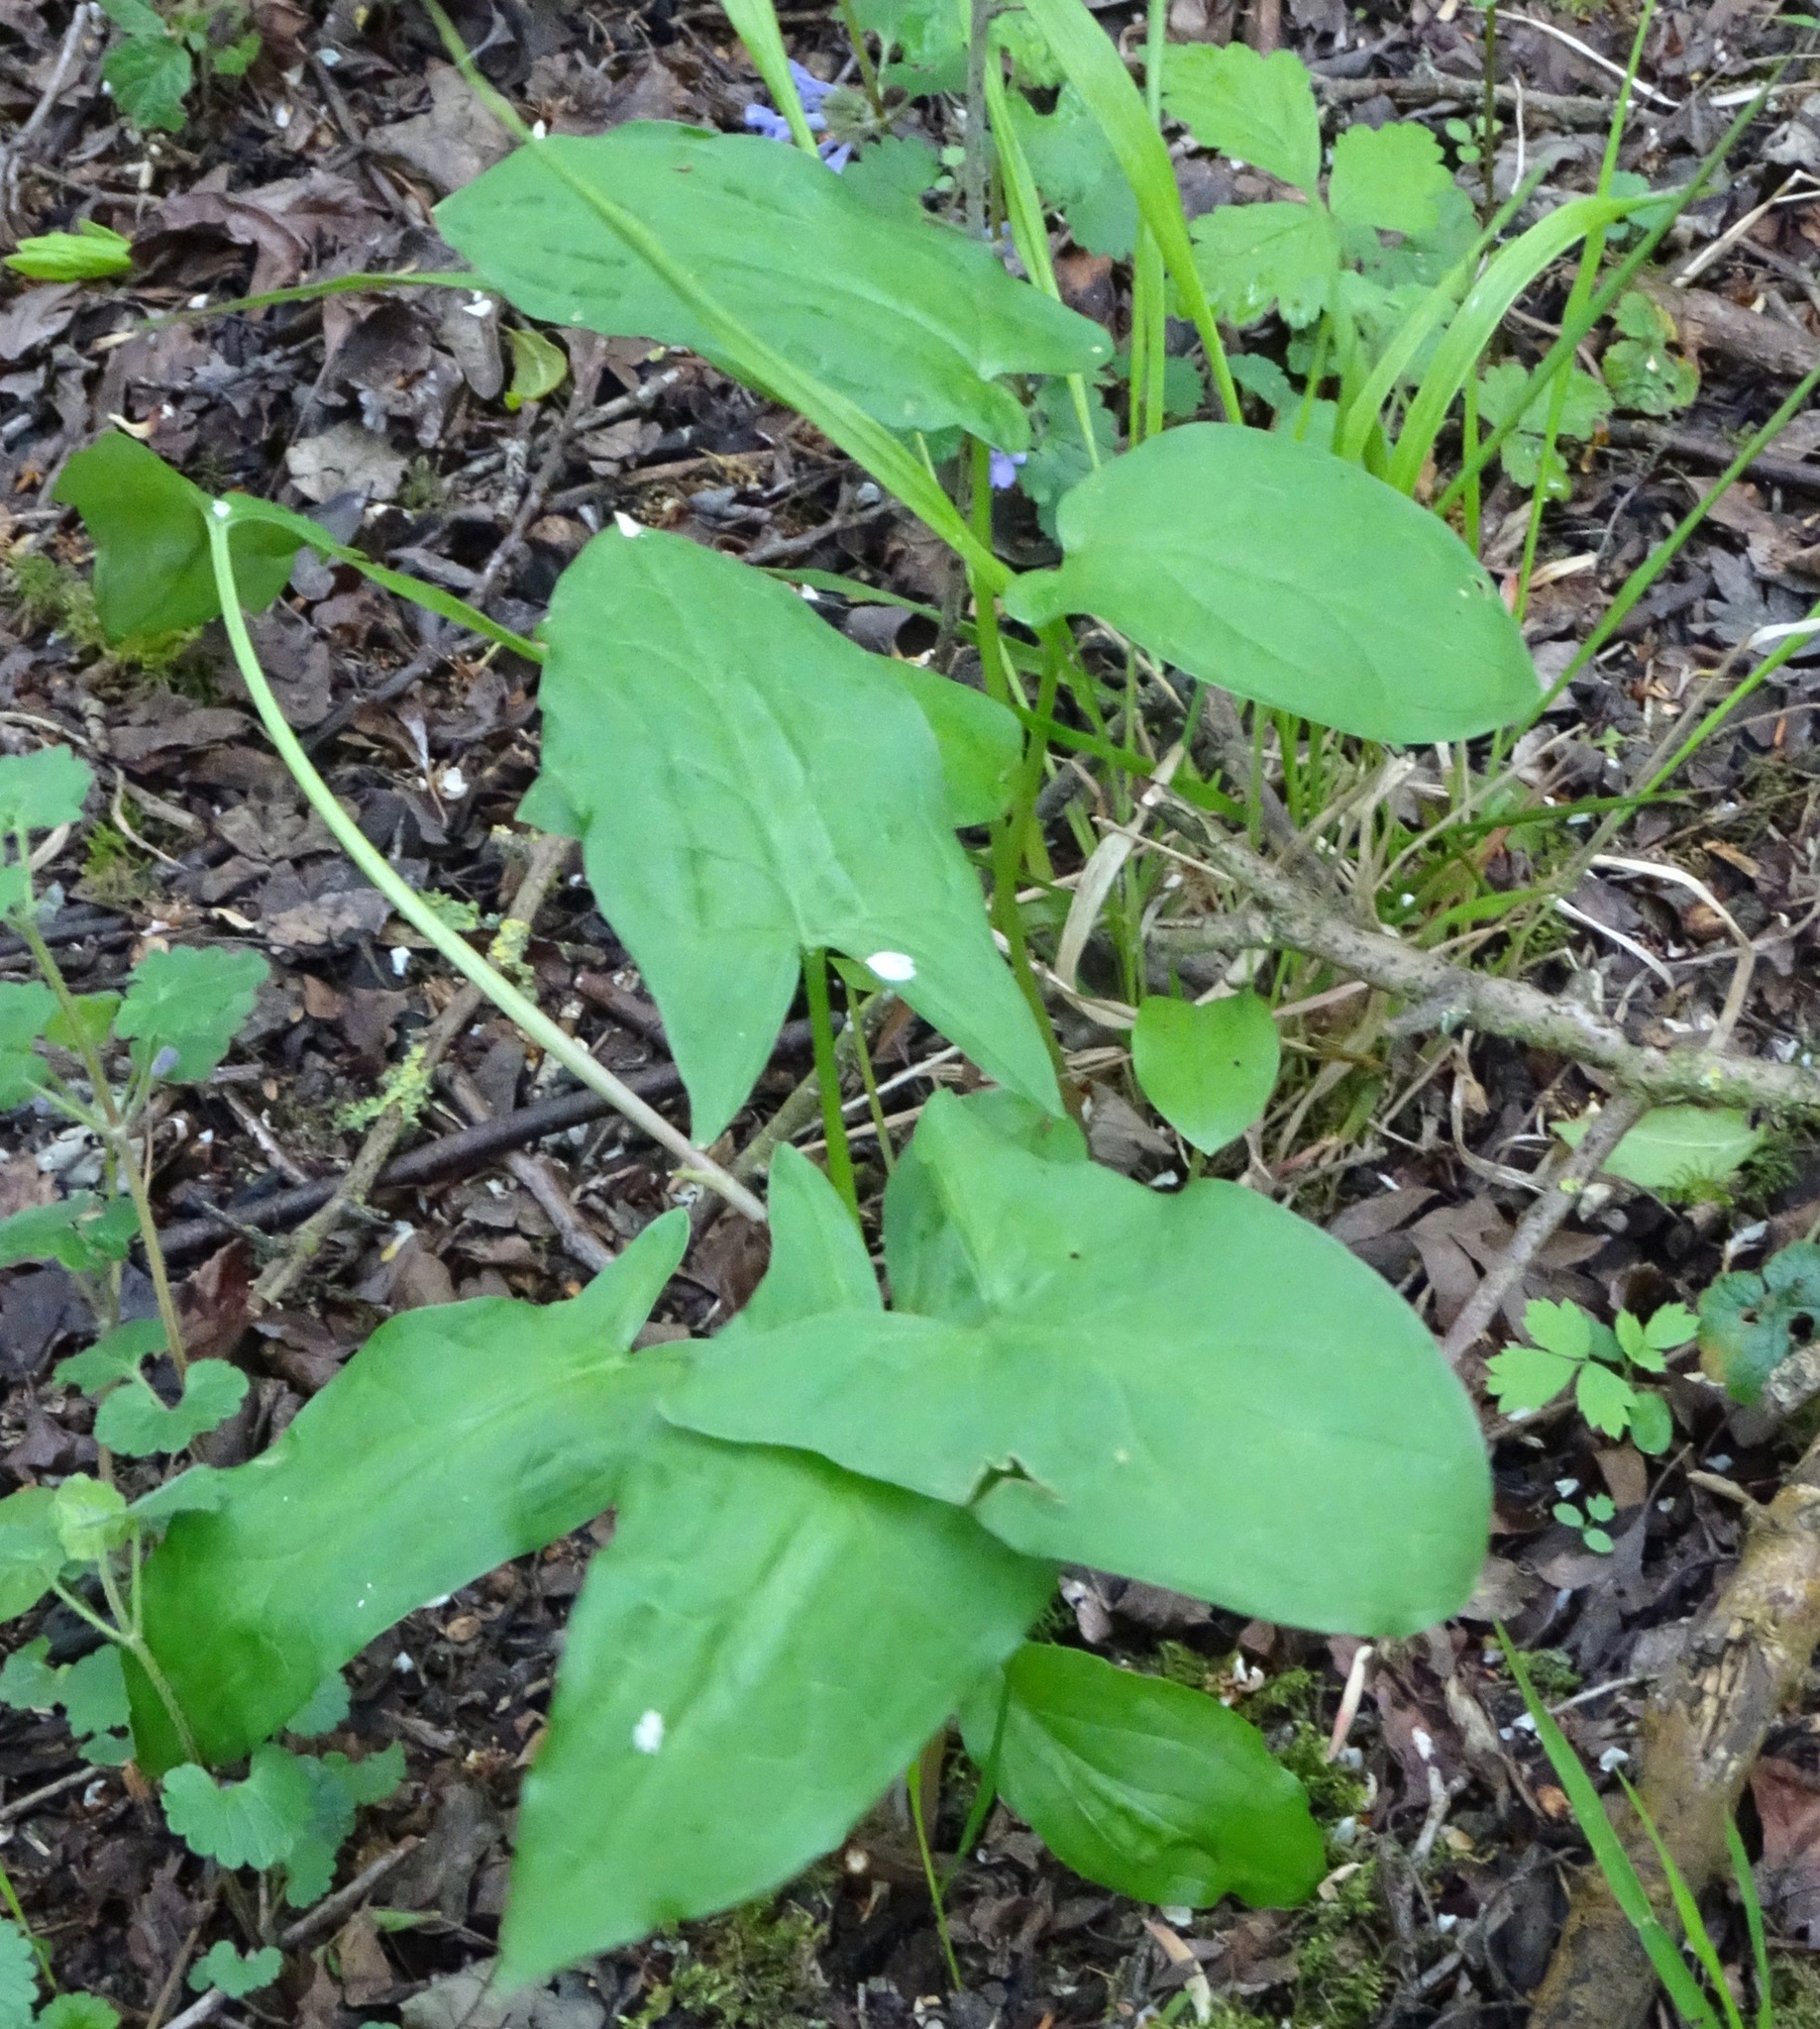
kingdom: Plantae
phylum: Tracheophyta
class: Liliopsida
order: Alismatales
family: Araceae
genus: Arum
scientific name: Arum maculatum
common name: Lords-and-ladies
